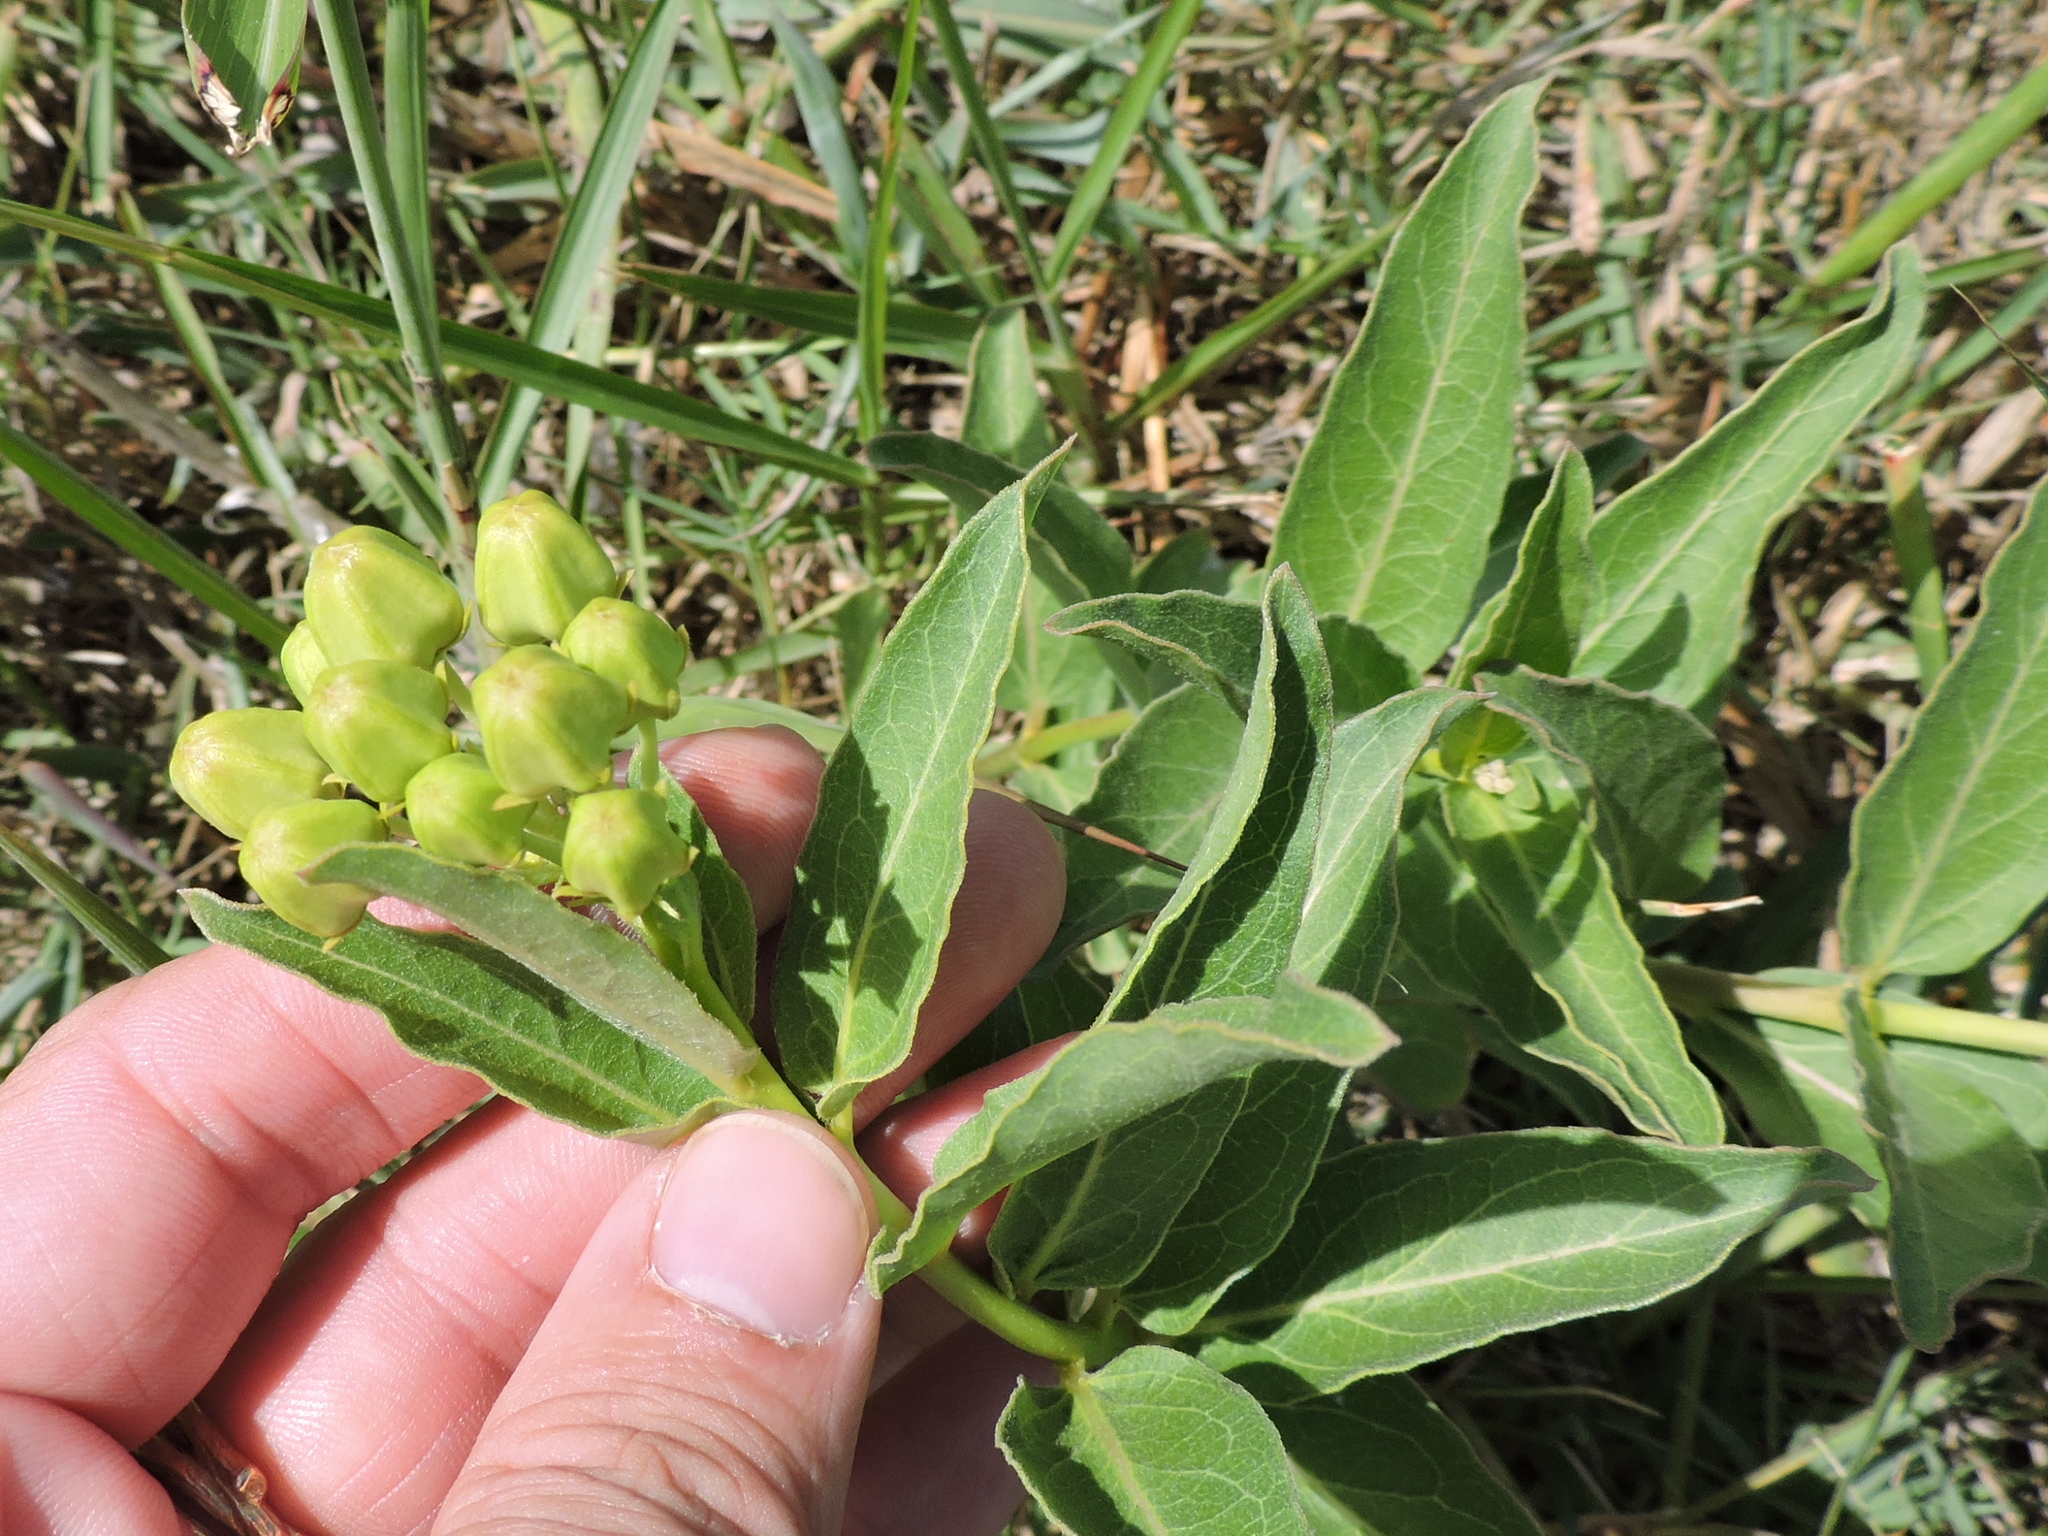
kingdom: Plantae
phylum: Tracheophyta
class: Magnoliopsida
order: Gentianales
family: Apocynaceae
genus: Asclepias
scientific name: Asclepias viridis
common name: Antelope-horns
